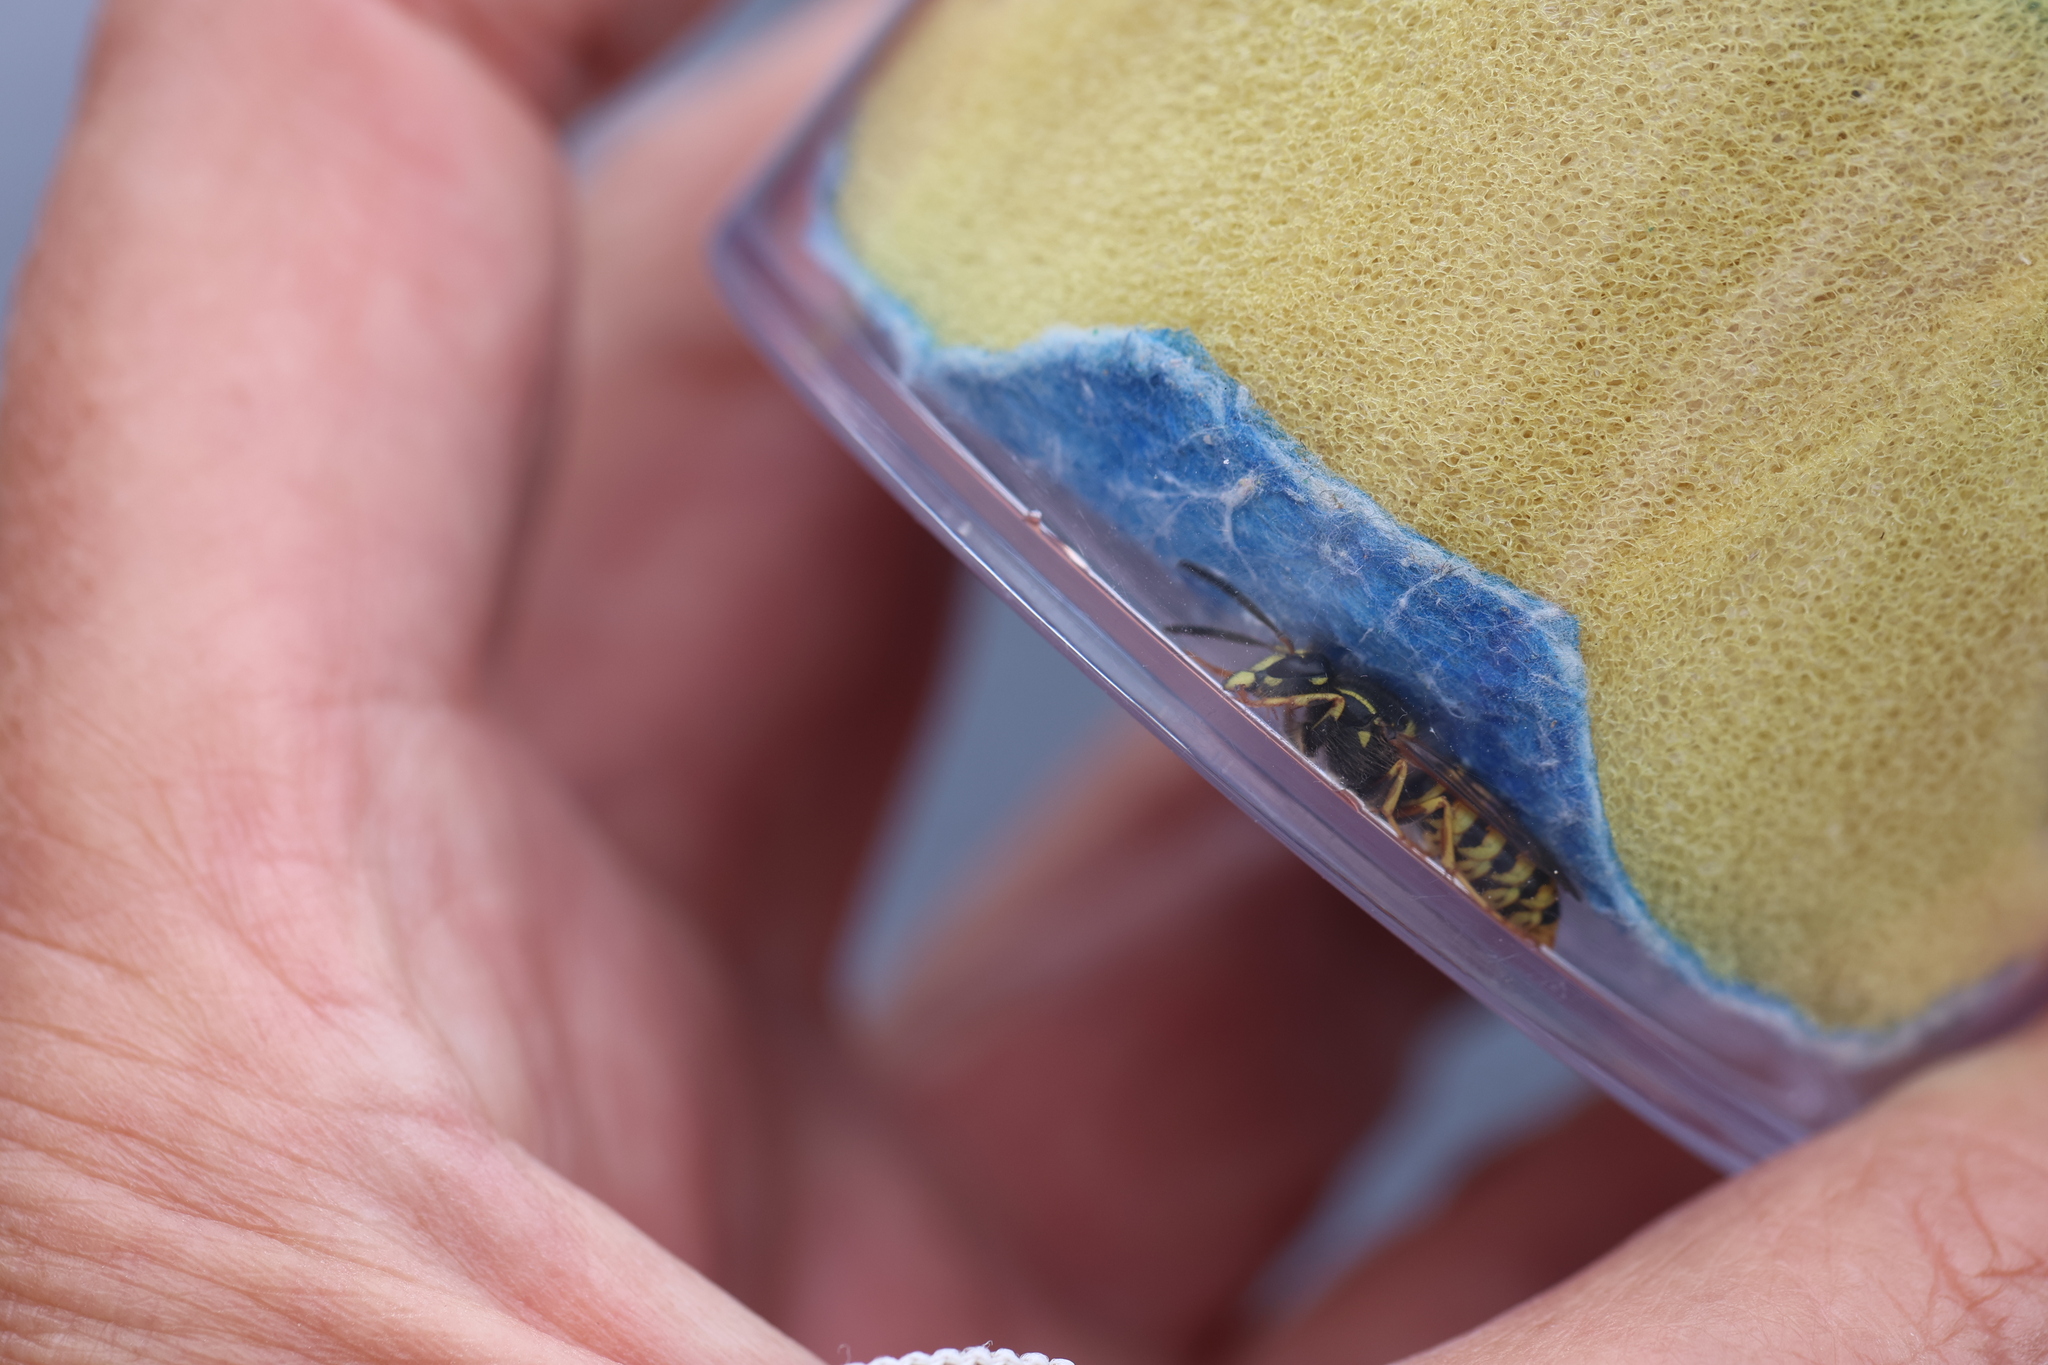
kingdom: Animalia
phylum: Arthropoda
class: Insecta
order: Hymenoptera
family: Vespidae
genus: Dolichovespula
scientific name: Dolichovespula saxonica
